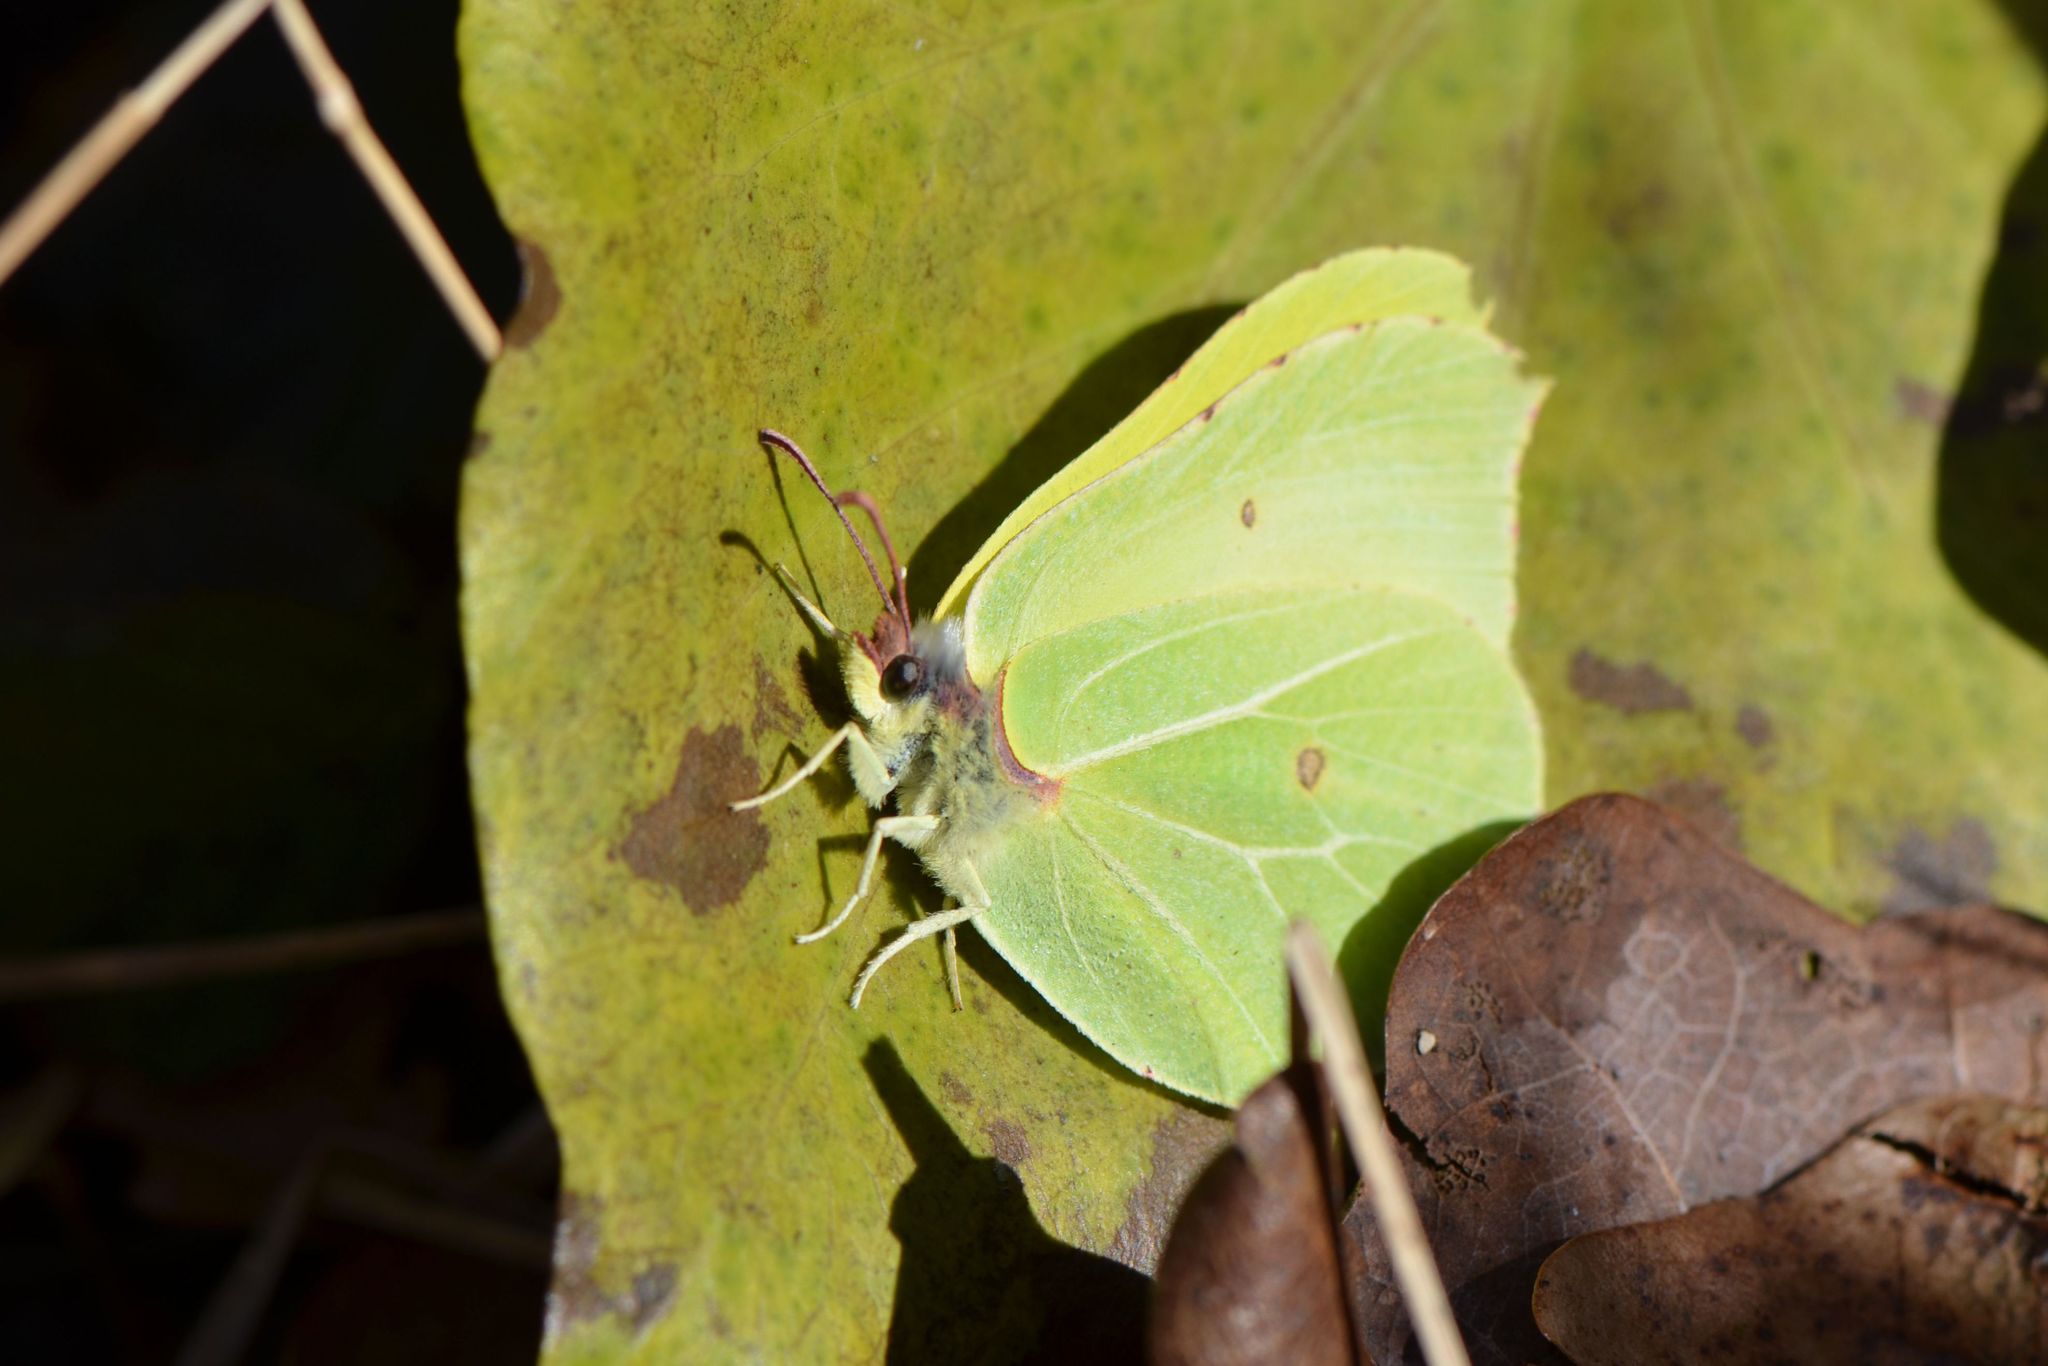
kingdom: Animalia
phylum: Arthropoda
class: Insecta
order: Lepidoptera
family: Pieridae
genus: Gonepteryx
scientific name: Gonepteryx rhamni
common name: Brimstone
